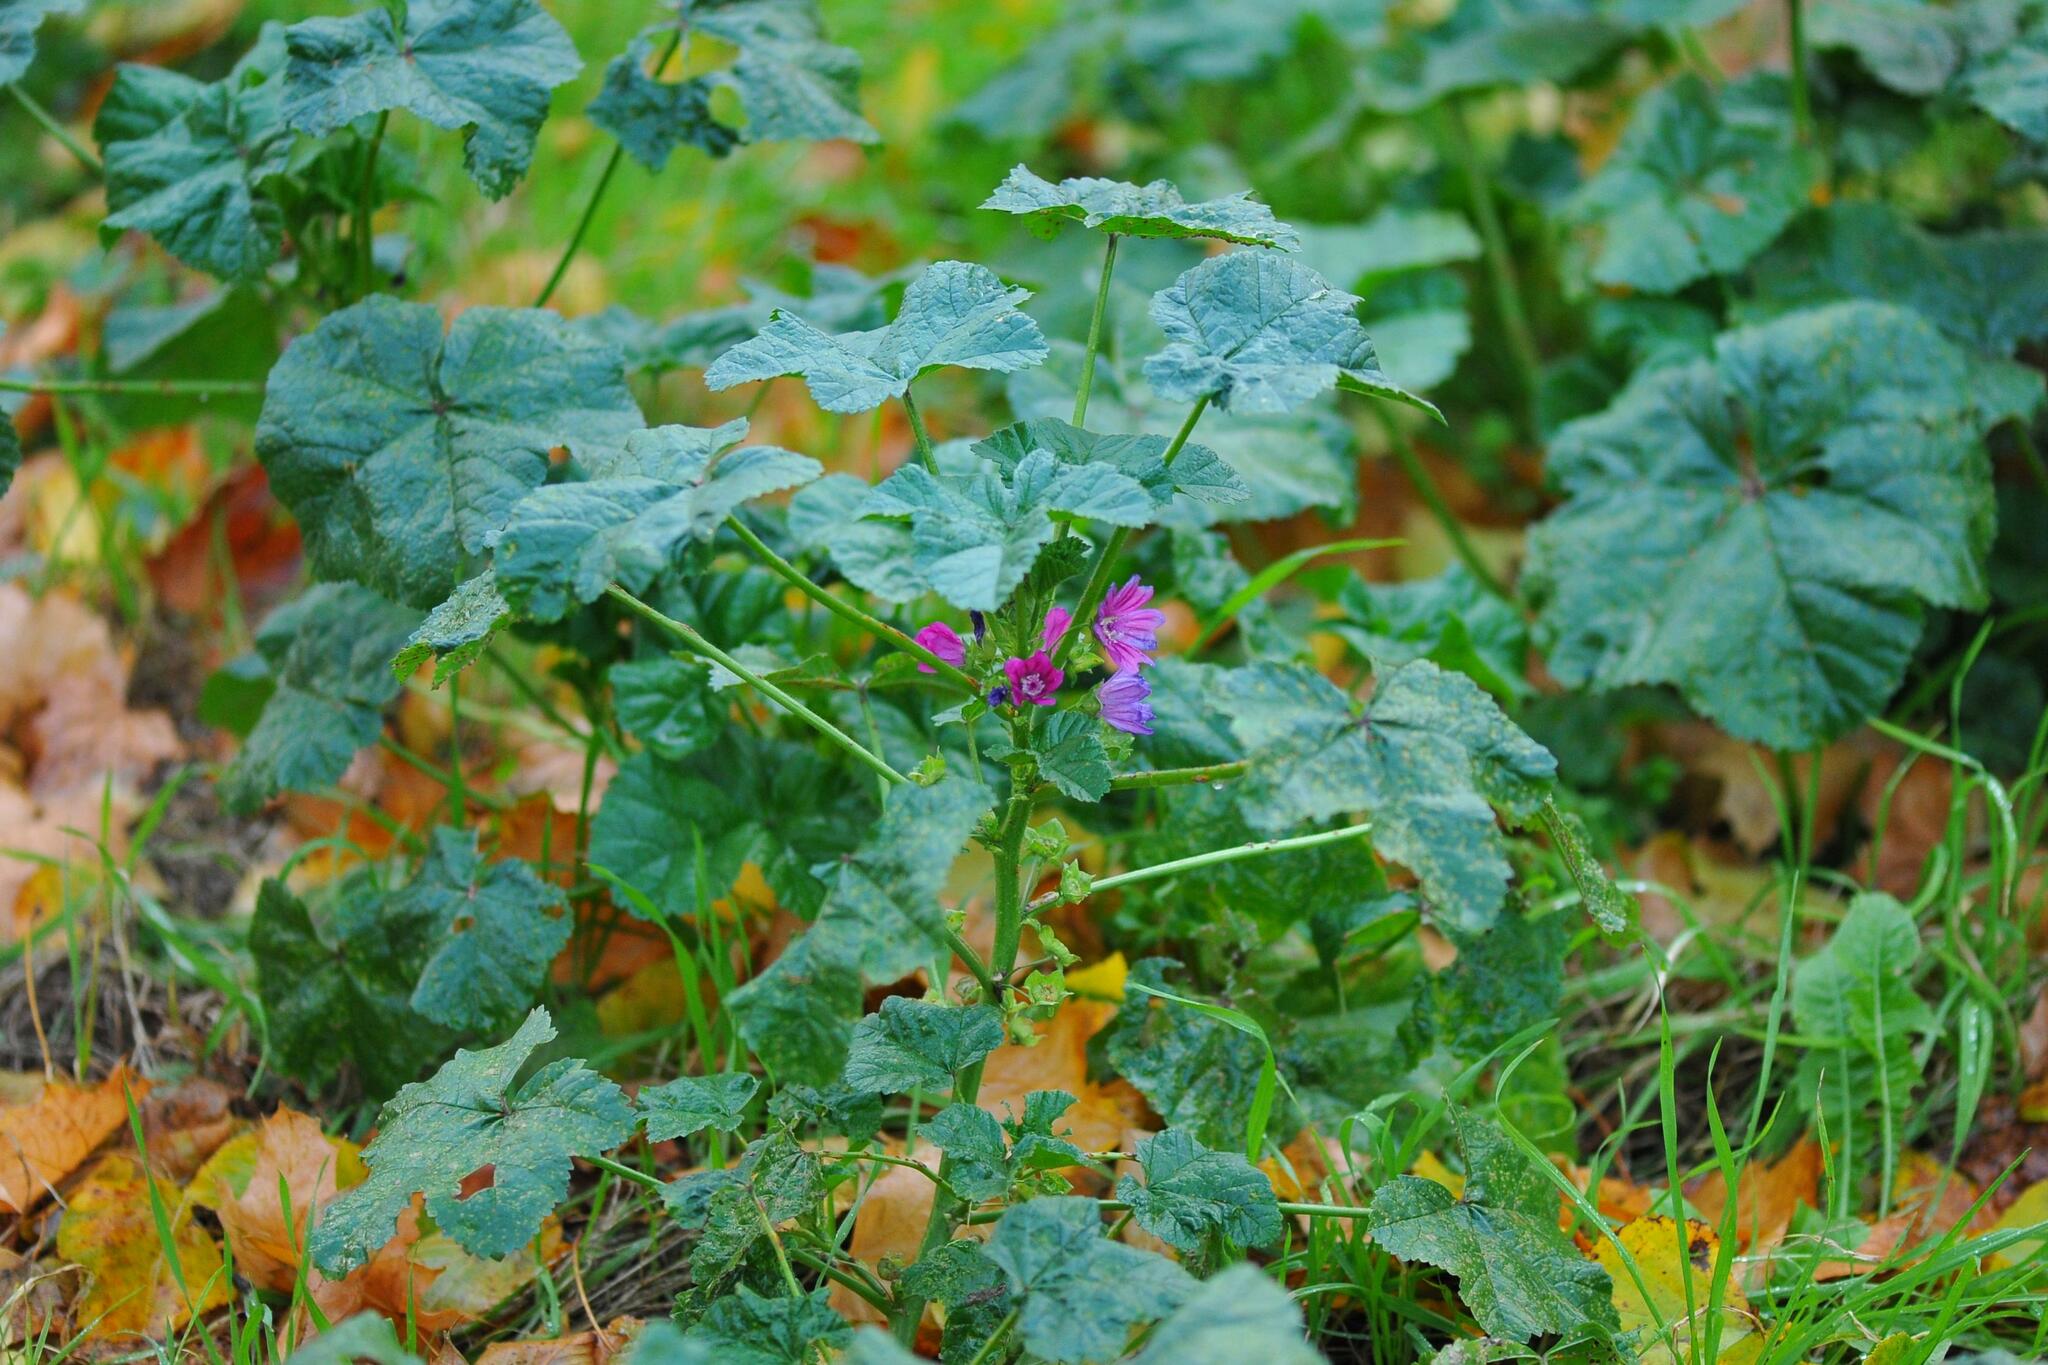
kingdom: Plantae
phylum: Tracheophyta
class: Magnoliopsida
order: Malvales
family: Malvaceae
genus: Malva
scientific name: Malva sylvestris
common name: Common mallow
